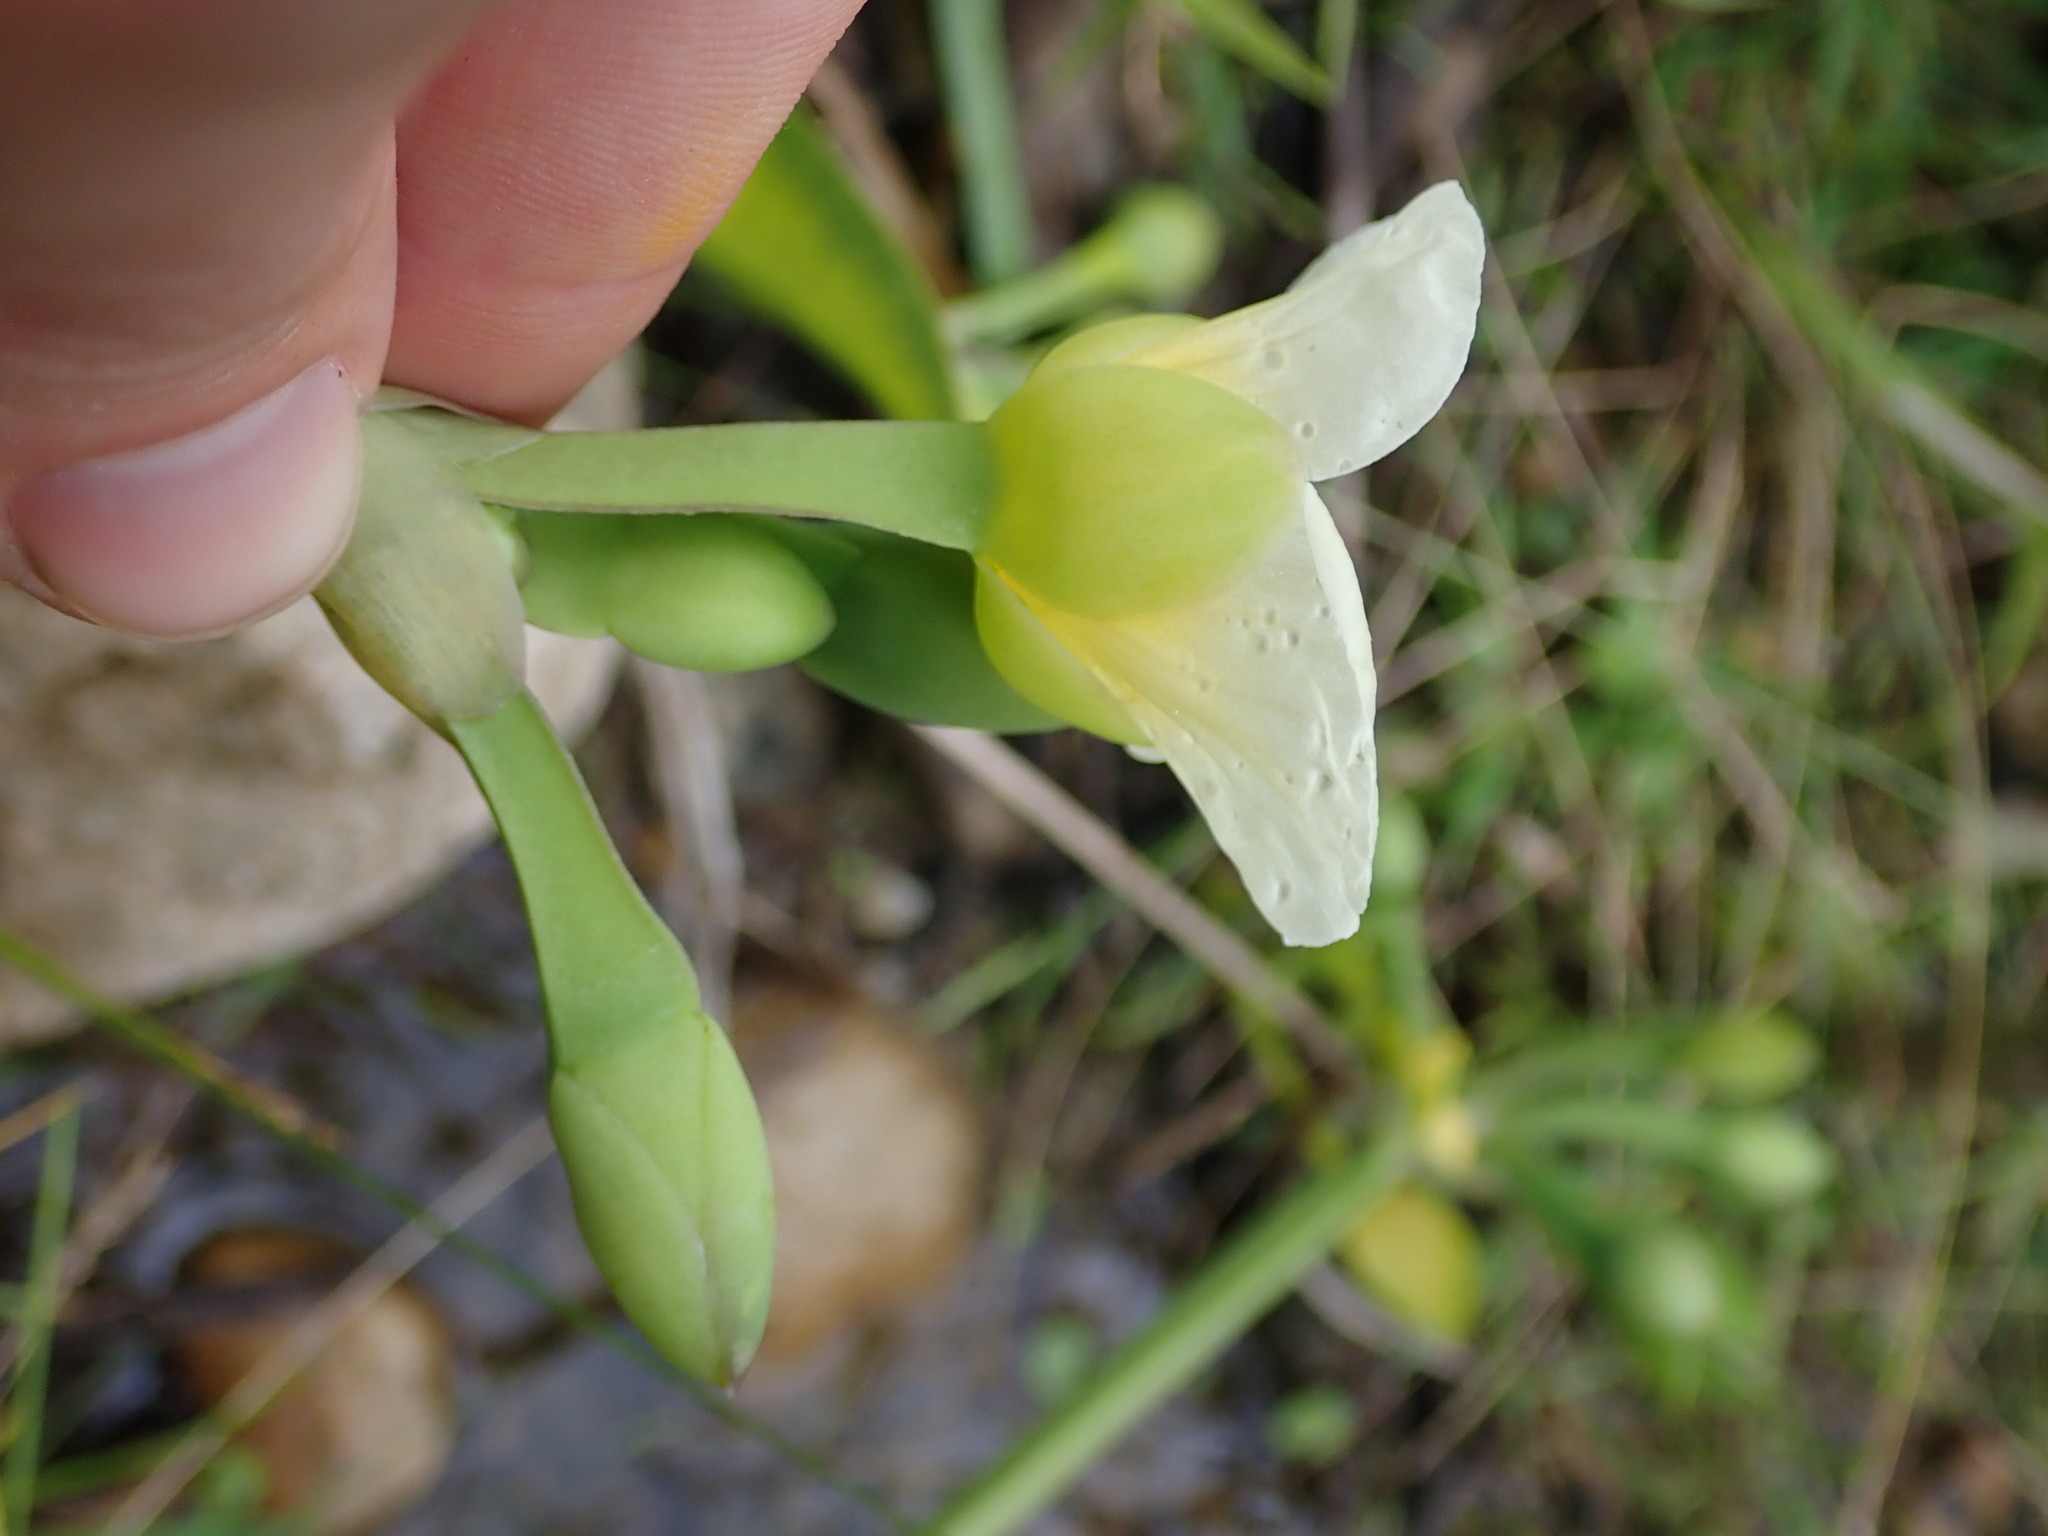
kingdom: Plantae
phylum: Tracheophyta
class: Liliopsida
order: Alismatales
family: Alismataceae
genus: Limnocharis
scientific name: Limnocharis flava
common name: Sawah-flower-rush
